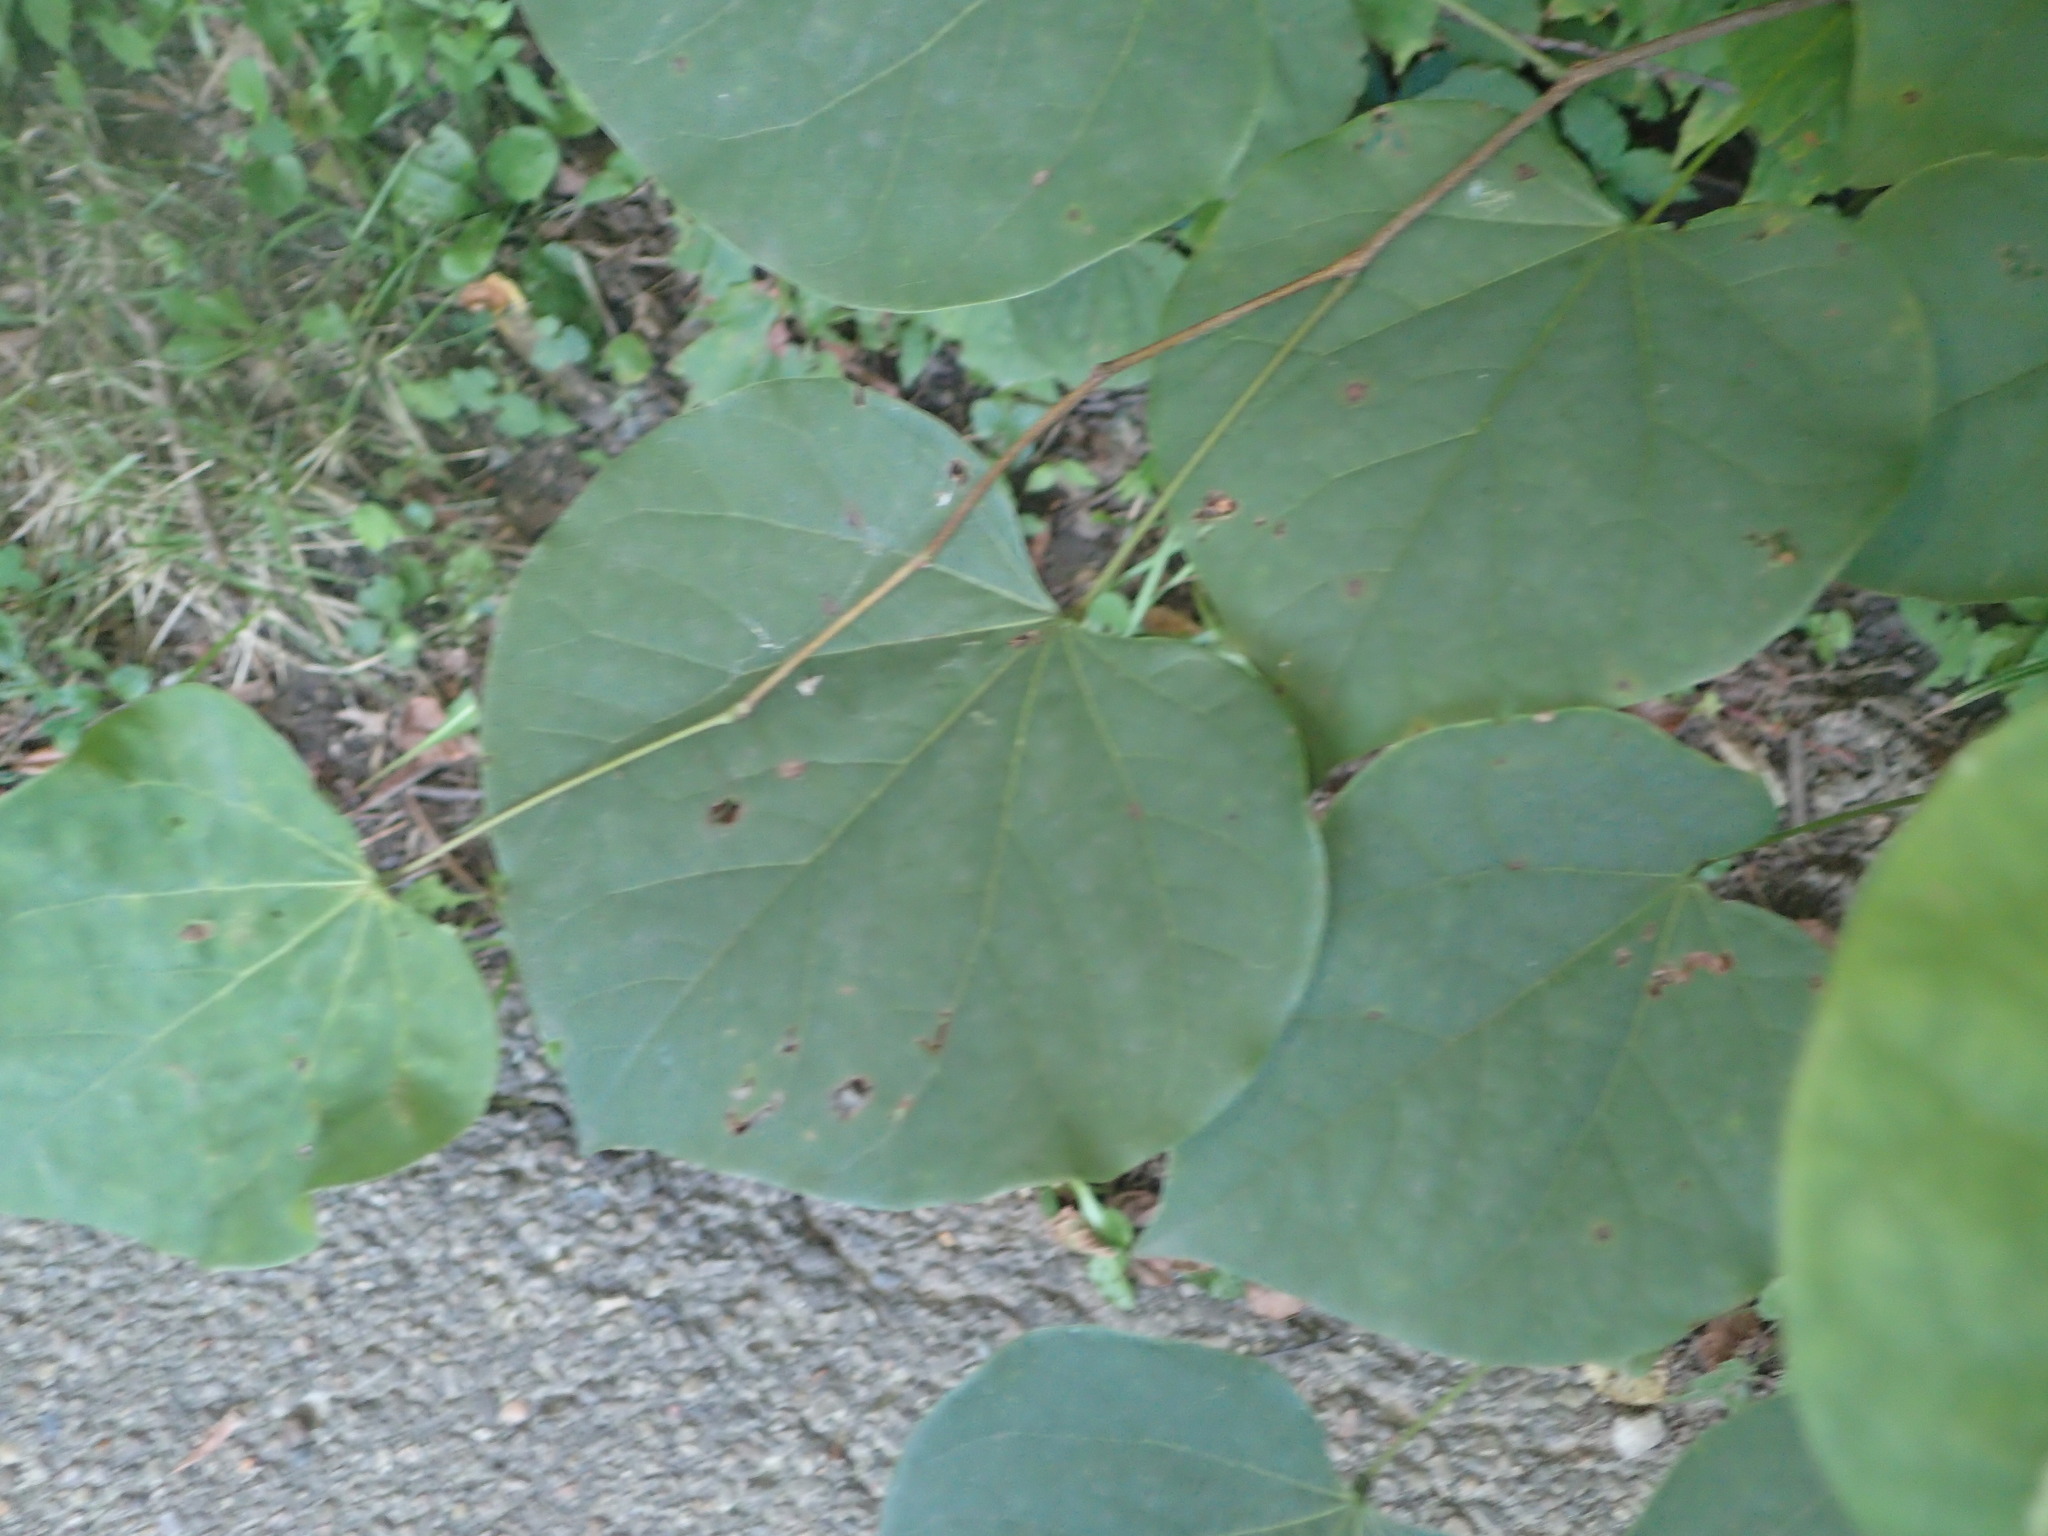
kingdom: Plantae
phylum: Tracheophyta
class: Magnoliopsida
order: Fabales
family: Fabaceae
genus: Cercis
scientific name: Cercis canadensis
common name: Eastern redbud
